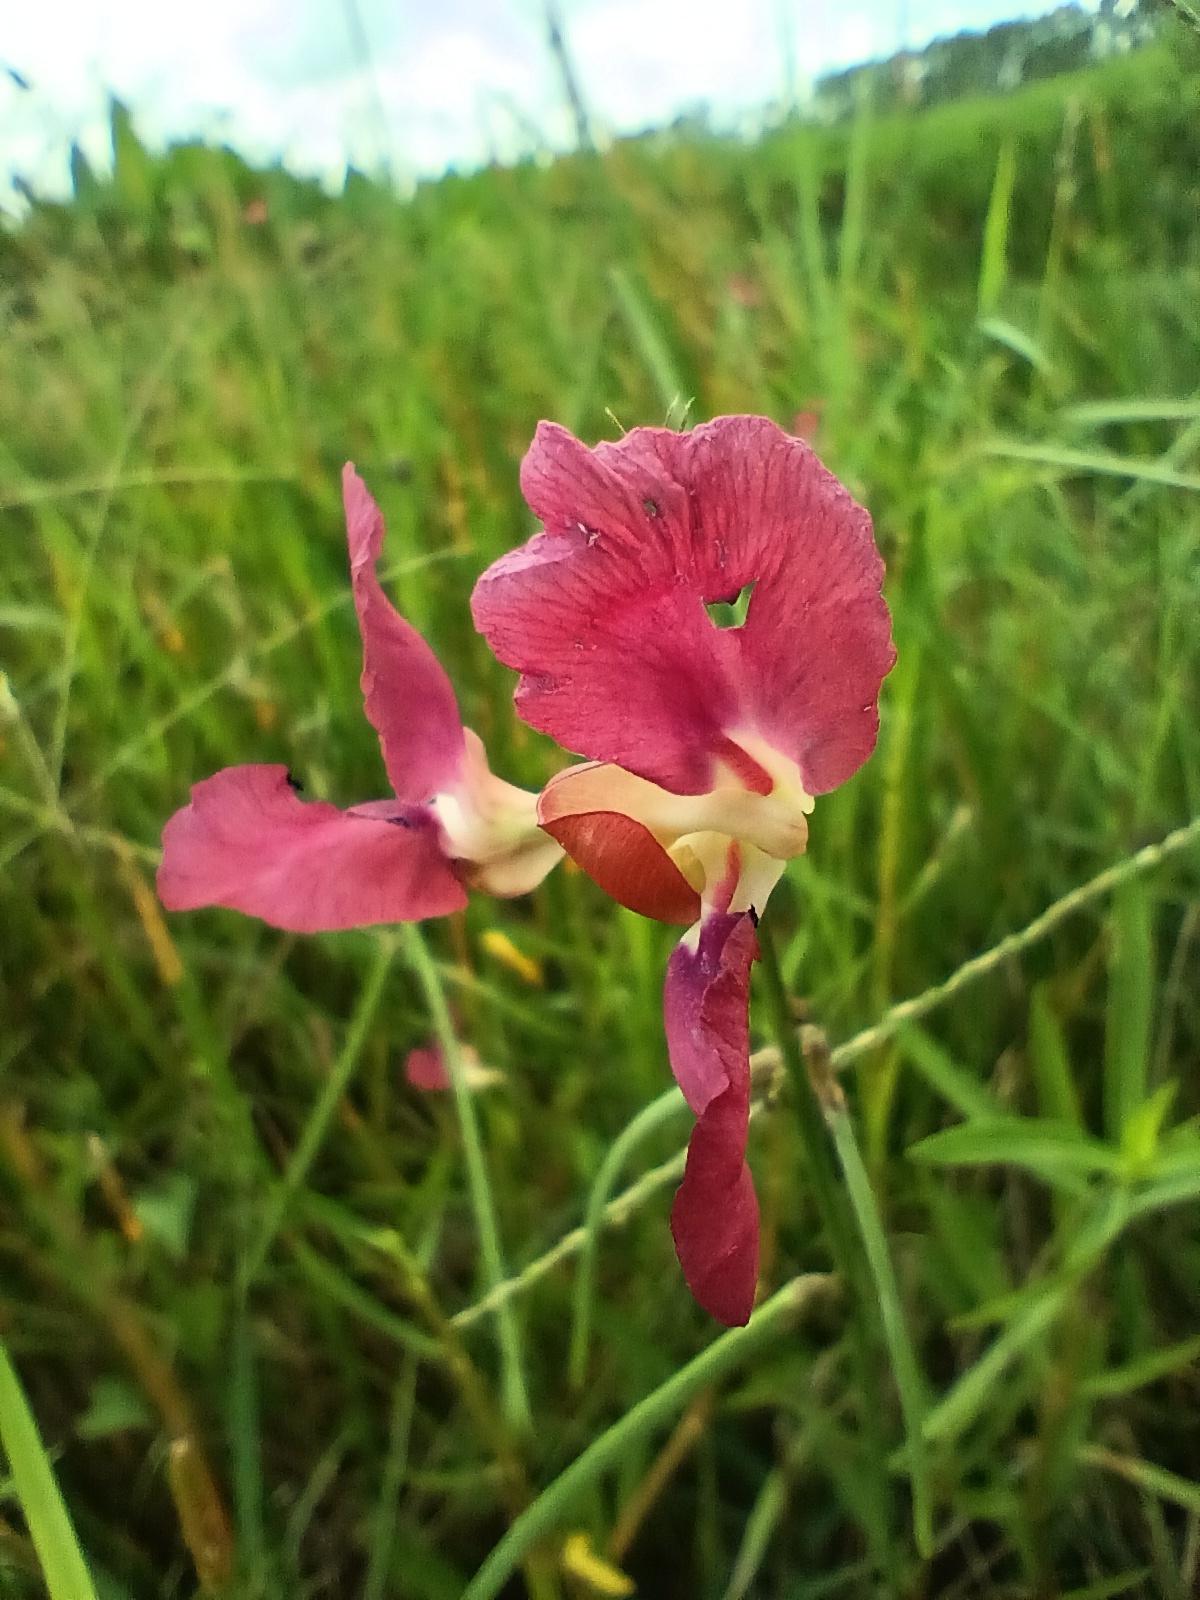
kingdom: Plantae
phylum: Tracheophyta
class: Magnoliopsida
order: Fabales
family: Fabaceae
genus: Macroptilium
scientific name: Macroptilium lathyroides
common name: Wild bushbean
